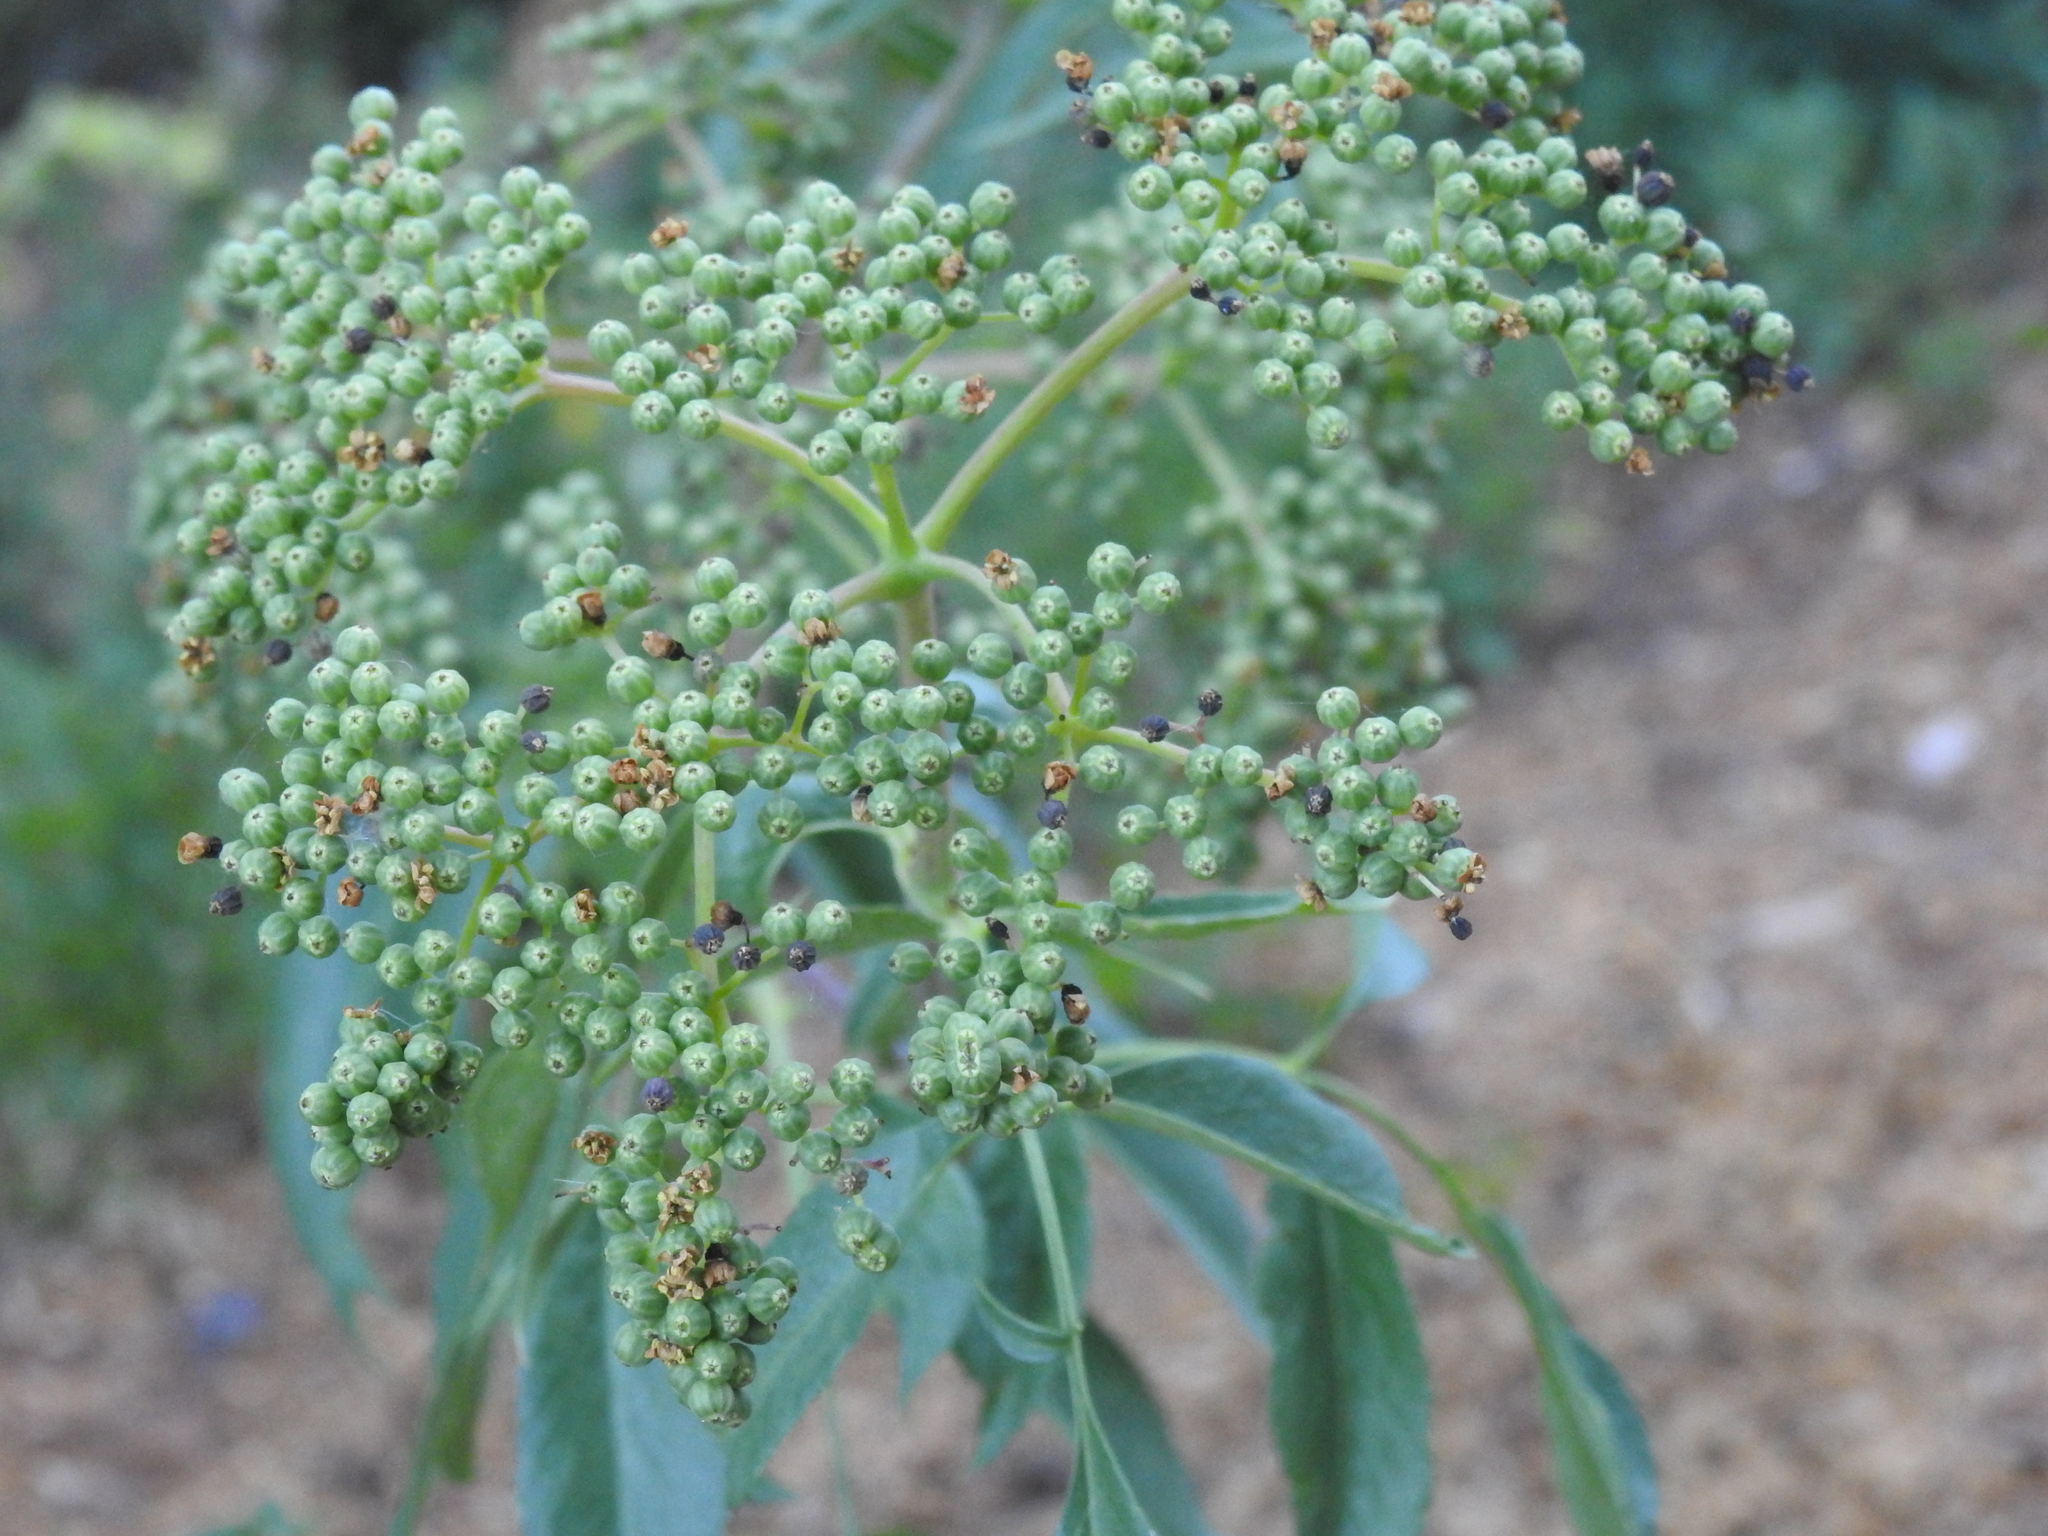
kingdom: Plantae
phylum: Tracheophyta
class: Magnoliopsida
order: Dipsacales
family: Viburnaceae
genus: Sambucus
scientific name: Sambucus cerulea
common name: Blue elder
